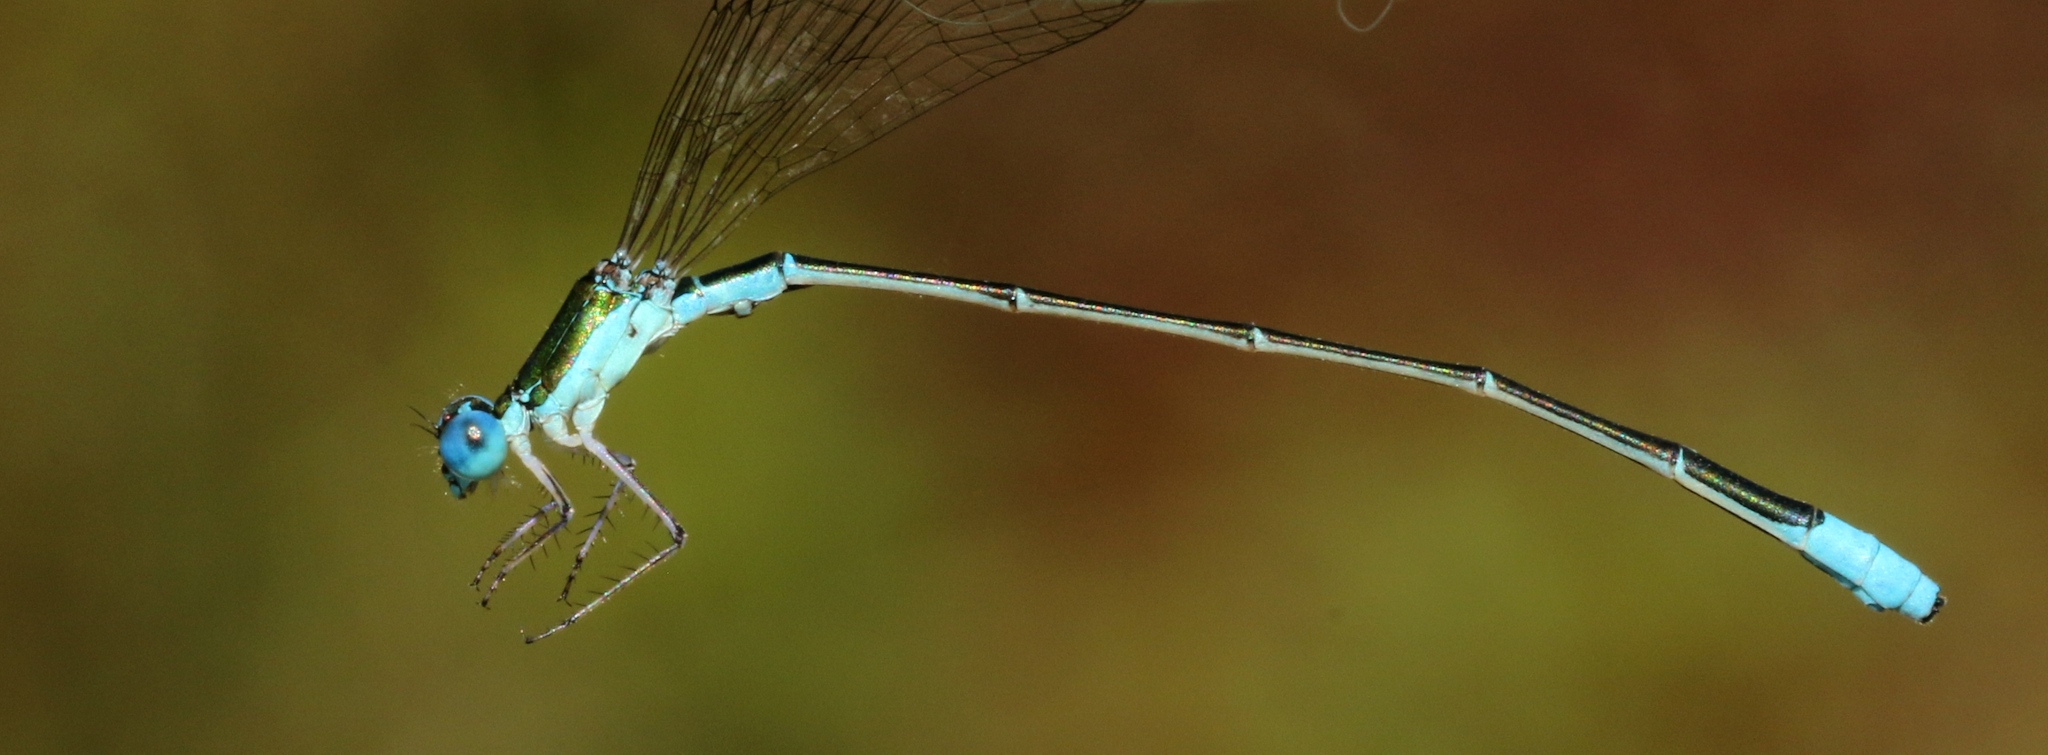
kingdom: Animalia
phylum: Arthropoda
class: Insecta
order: Odonata
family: Coenagrionidae
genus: Nehalennia
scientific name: Nehalennia gracilis
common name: Sphagnum sprite
